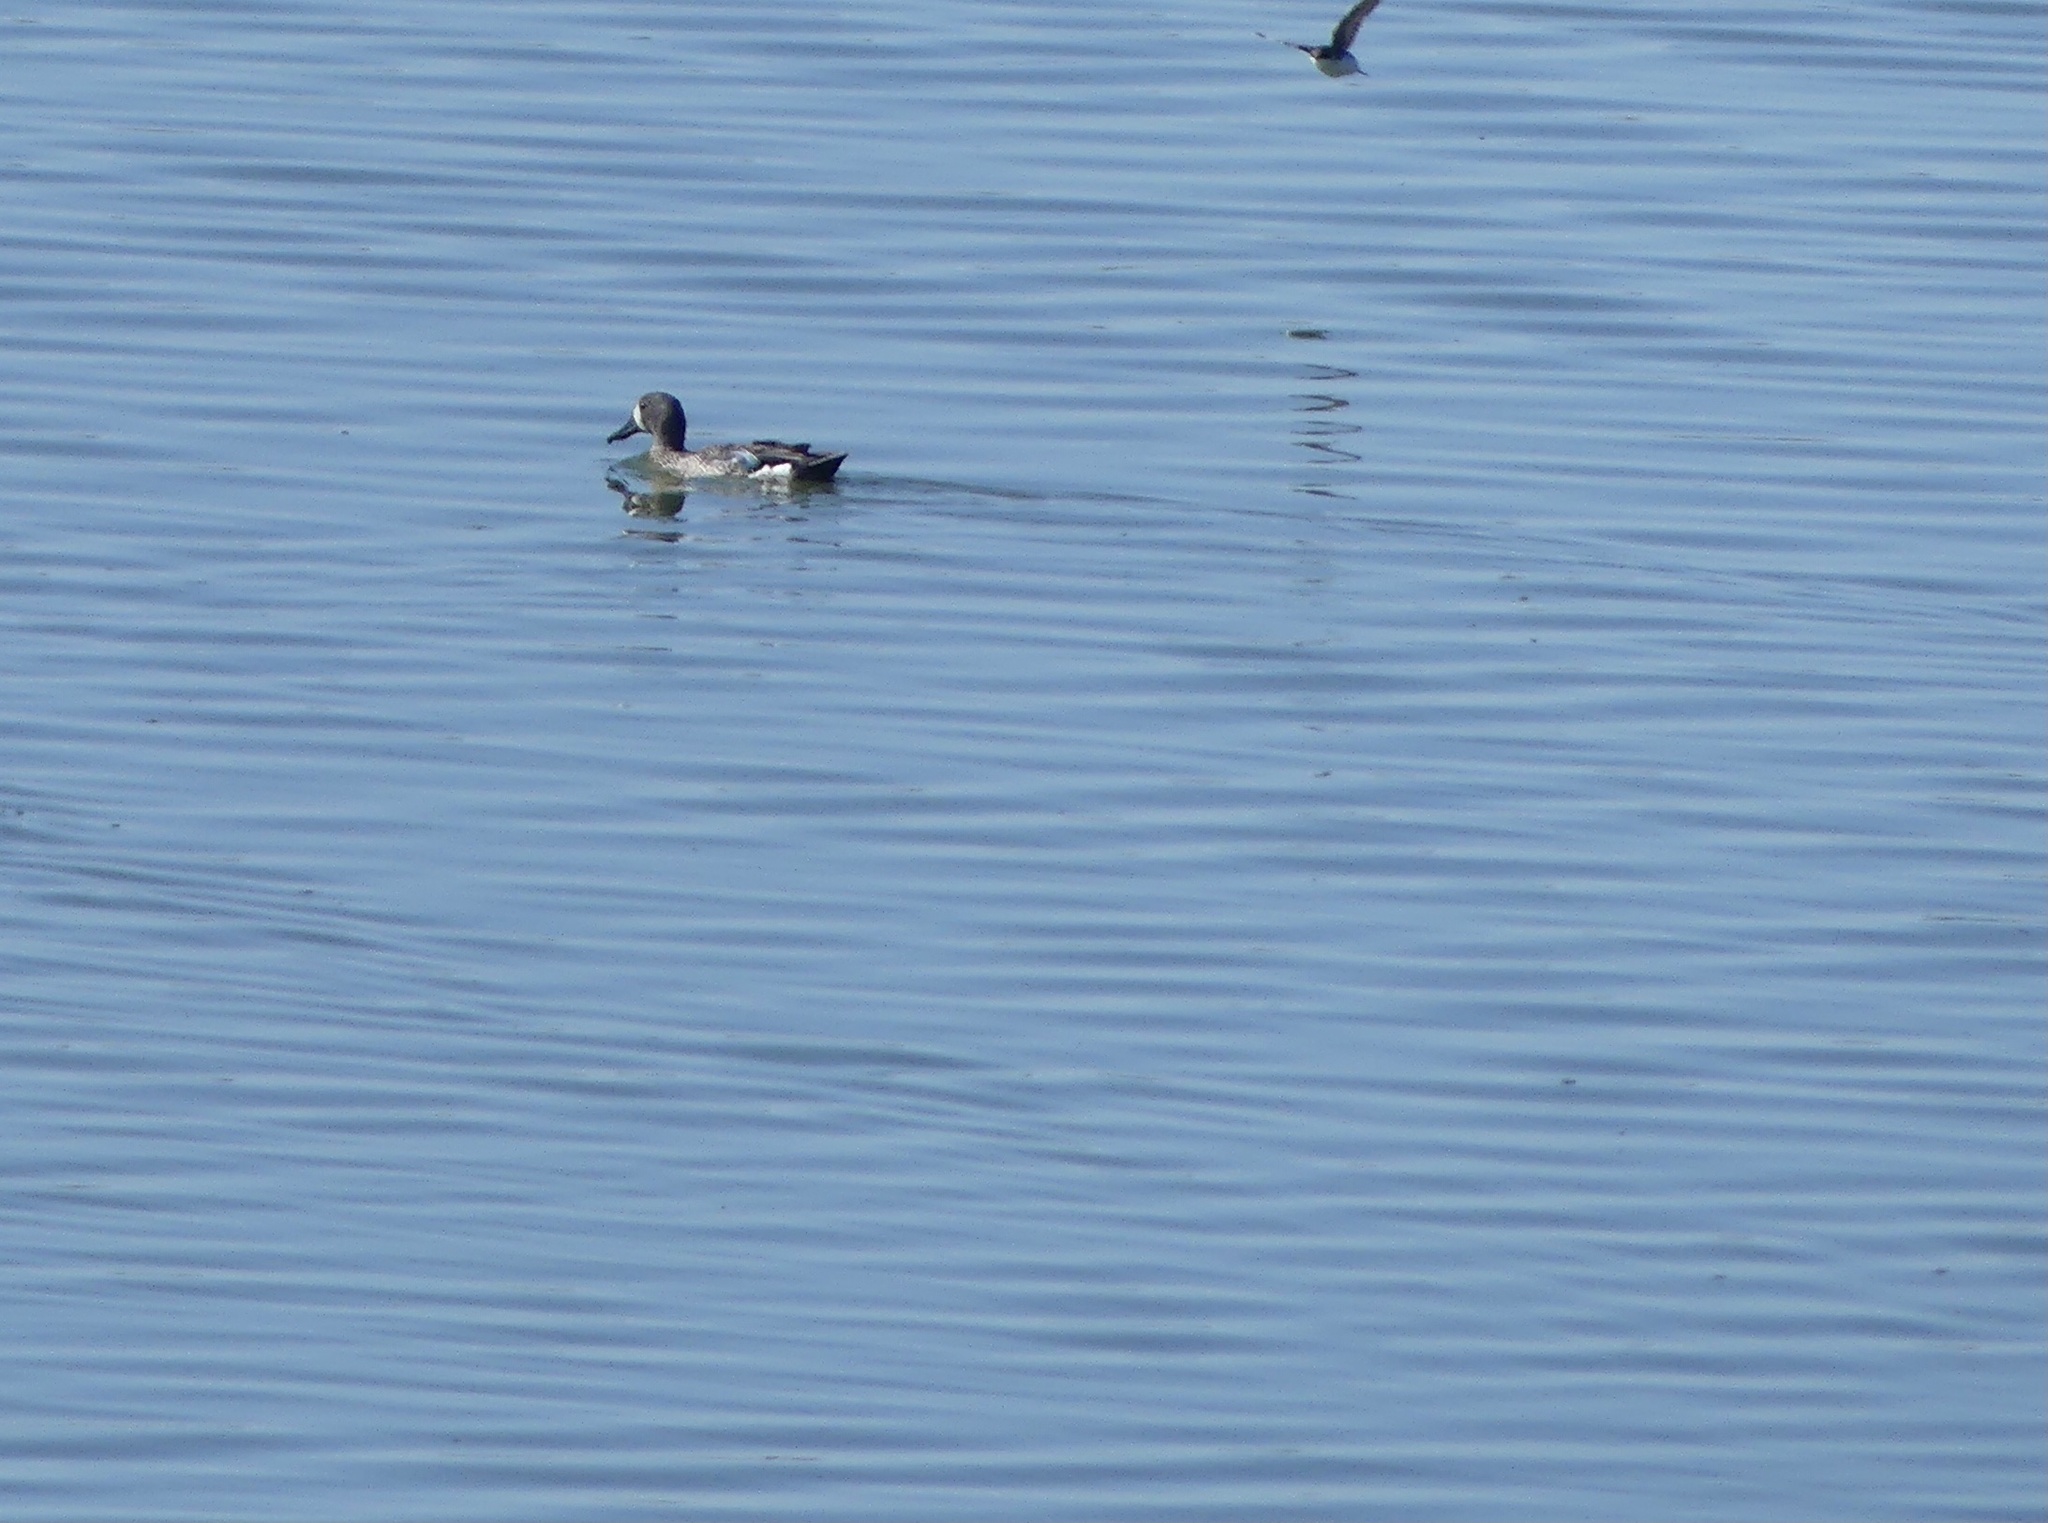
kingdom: Animalia
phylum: Chordata
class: Aves
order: Anseriformes
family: Anatidae
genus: Spatula
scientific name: Spatula discors
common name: Blue-winged teal
